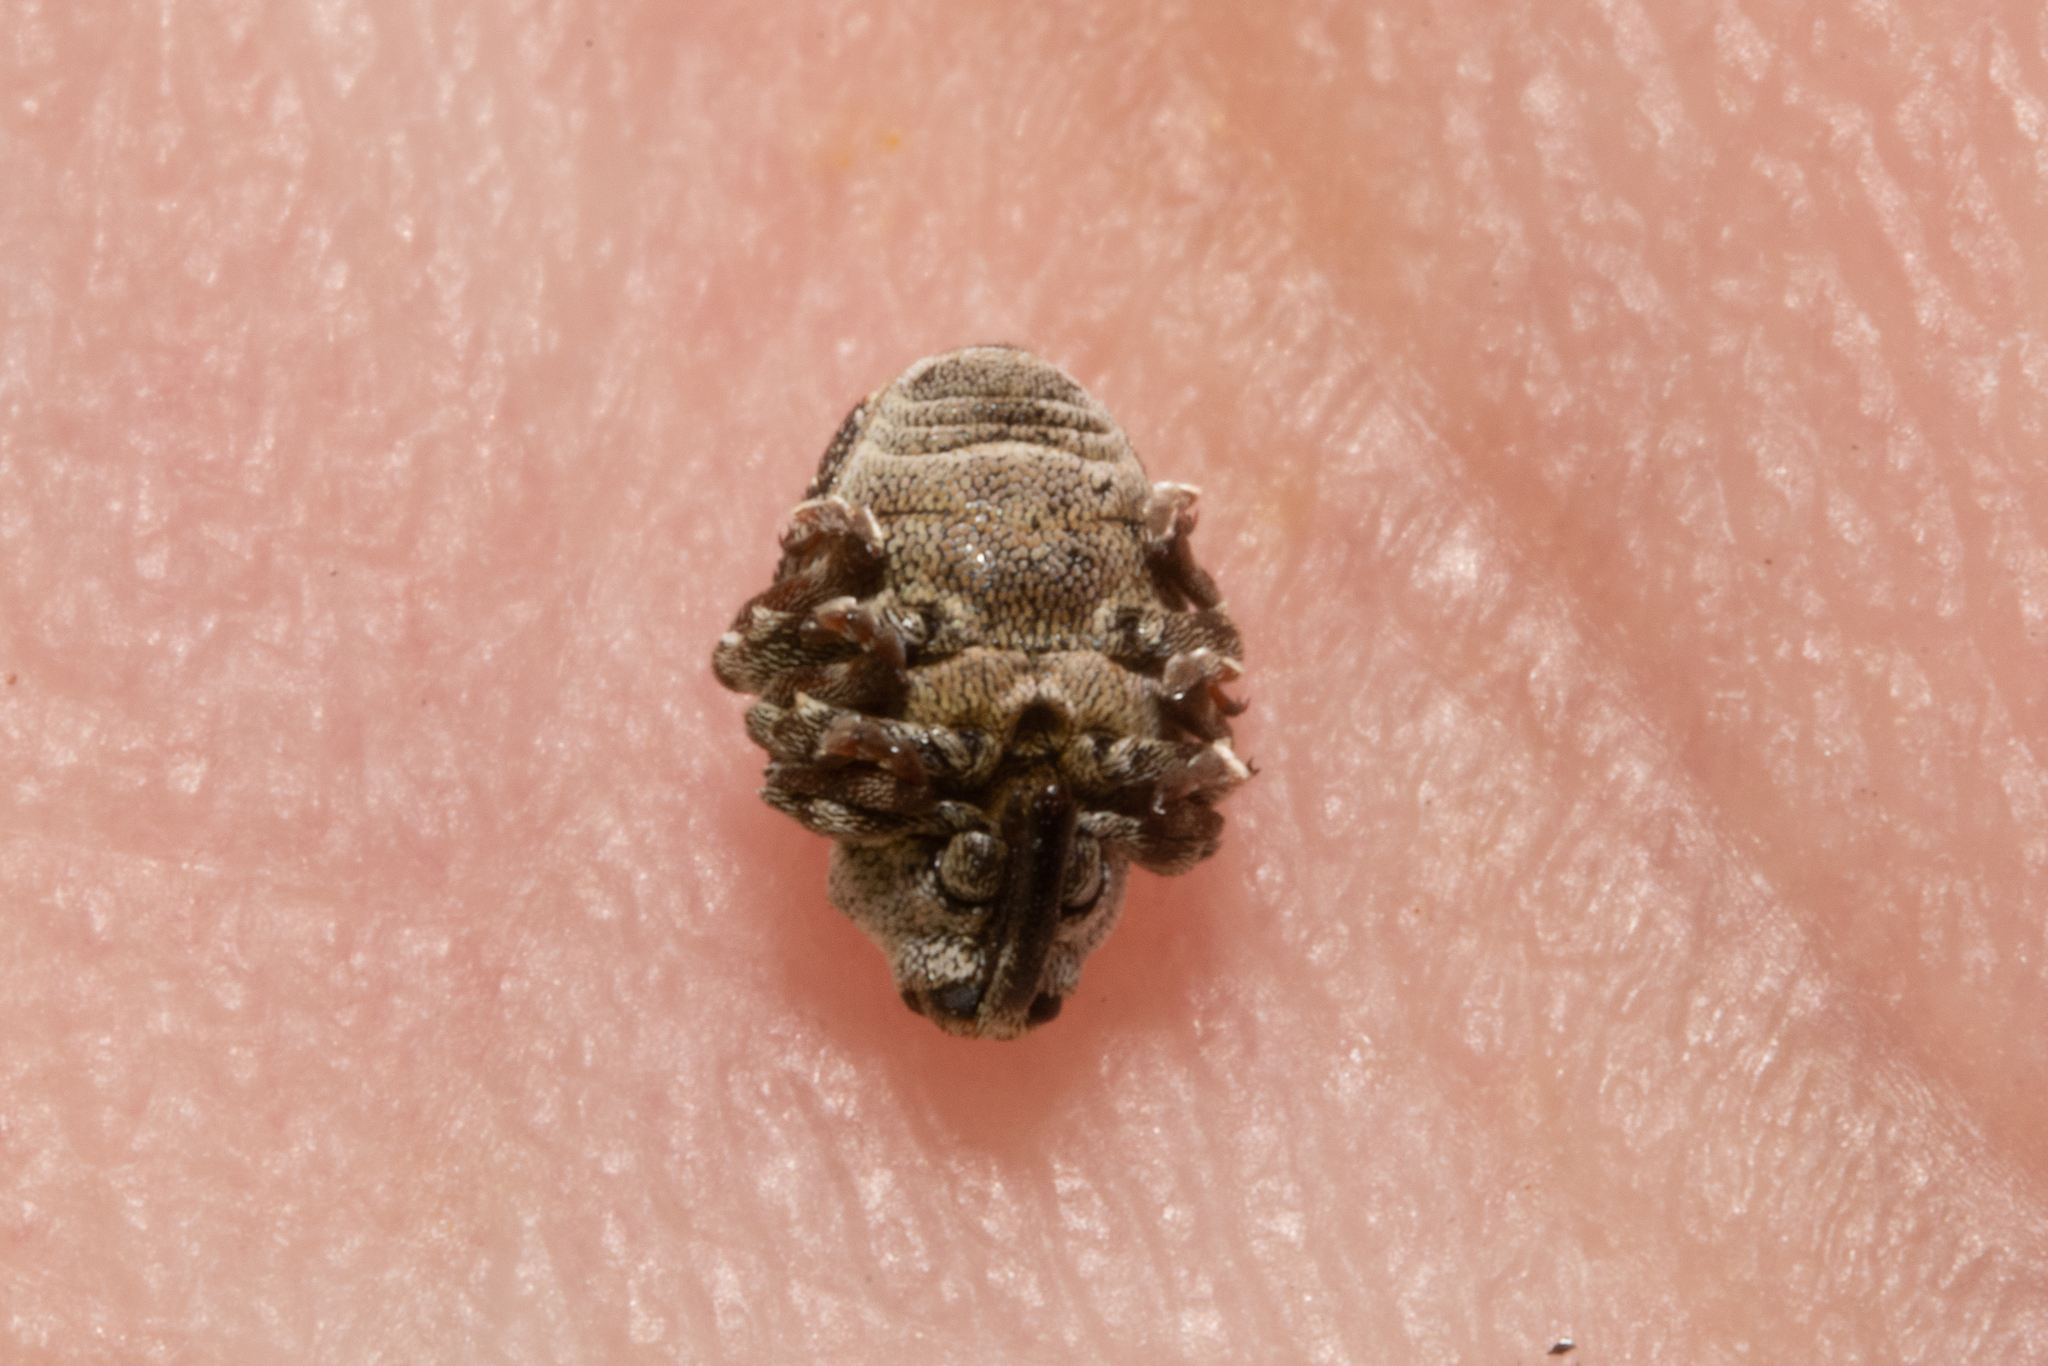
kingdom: Animalia
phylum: Arthropoda
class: Insecta
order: Coleoptera
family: Curculionidae
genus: Nedyus
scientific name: Nedyus quadrimaculatus
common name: Small nettle weevil
